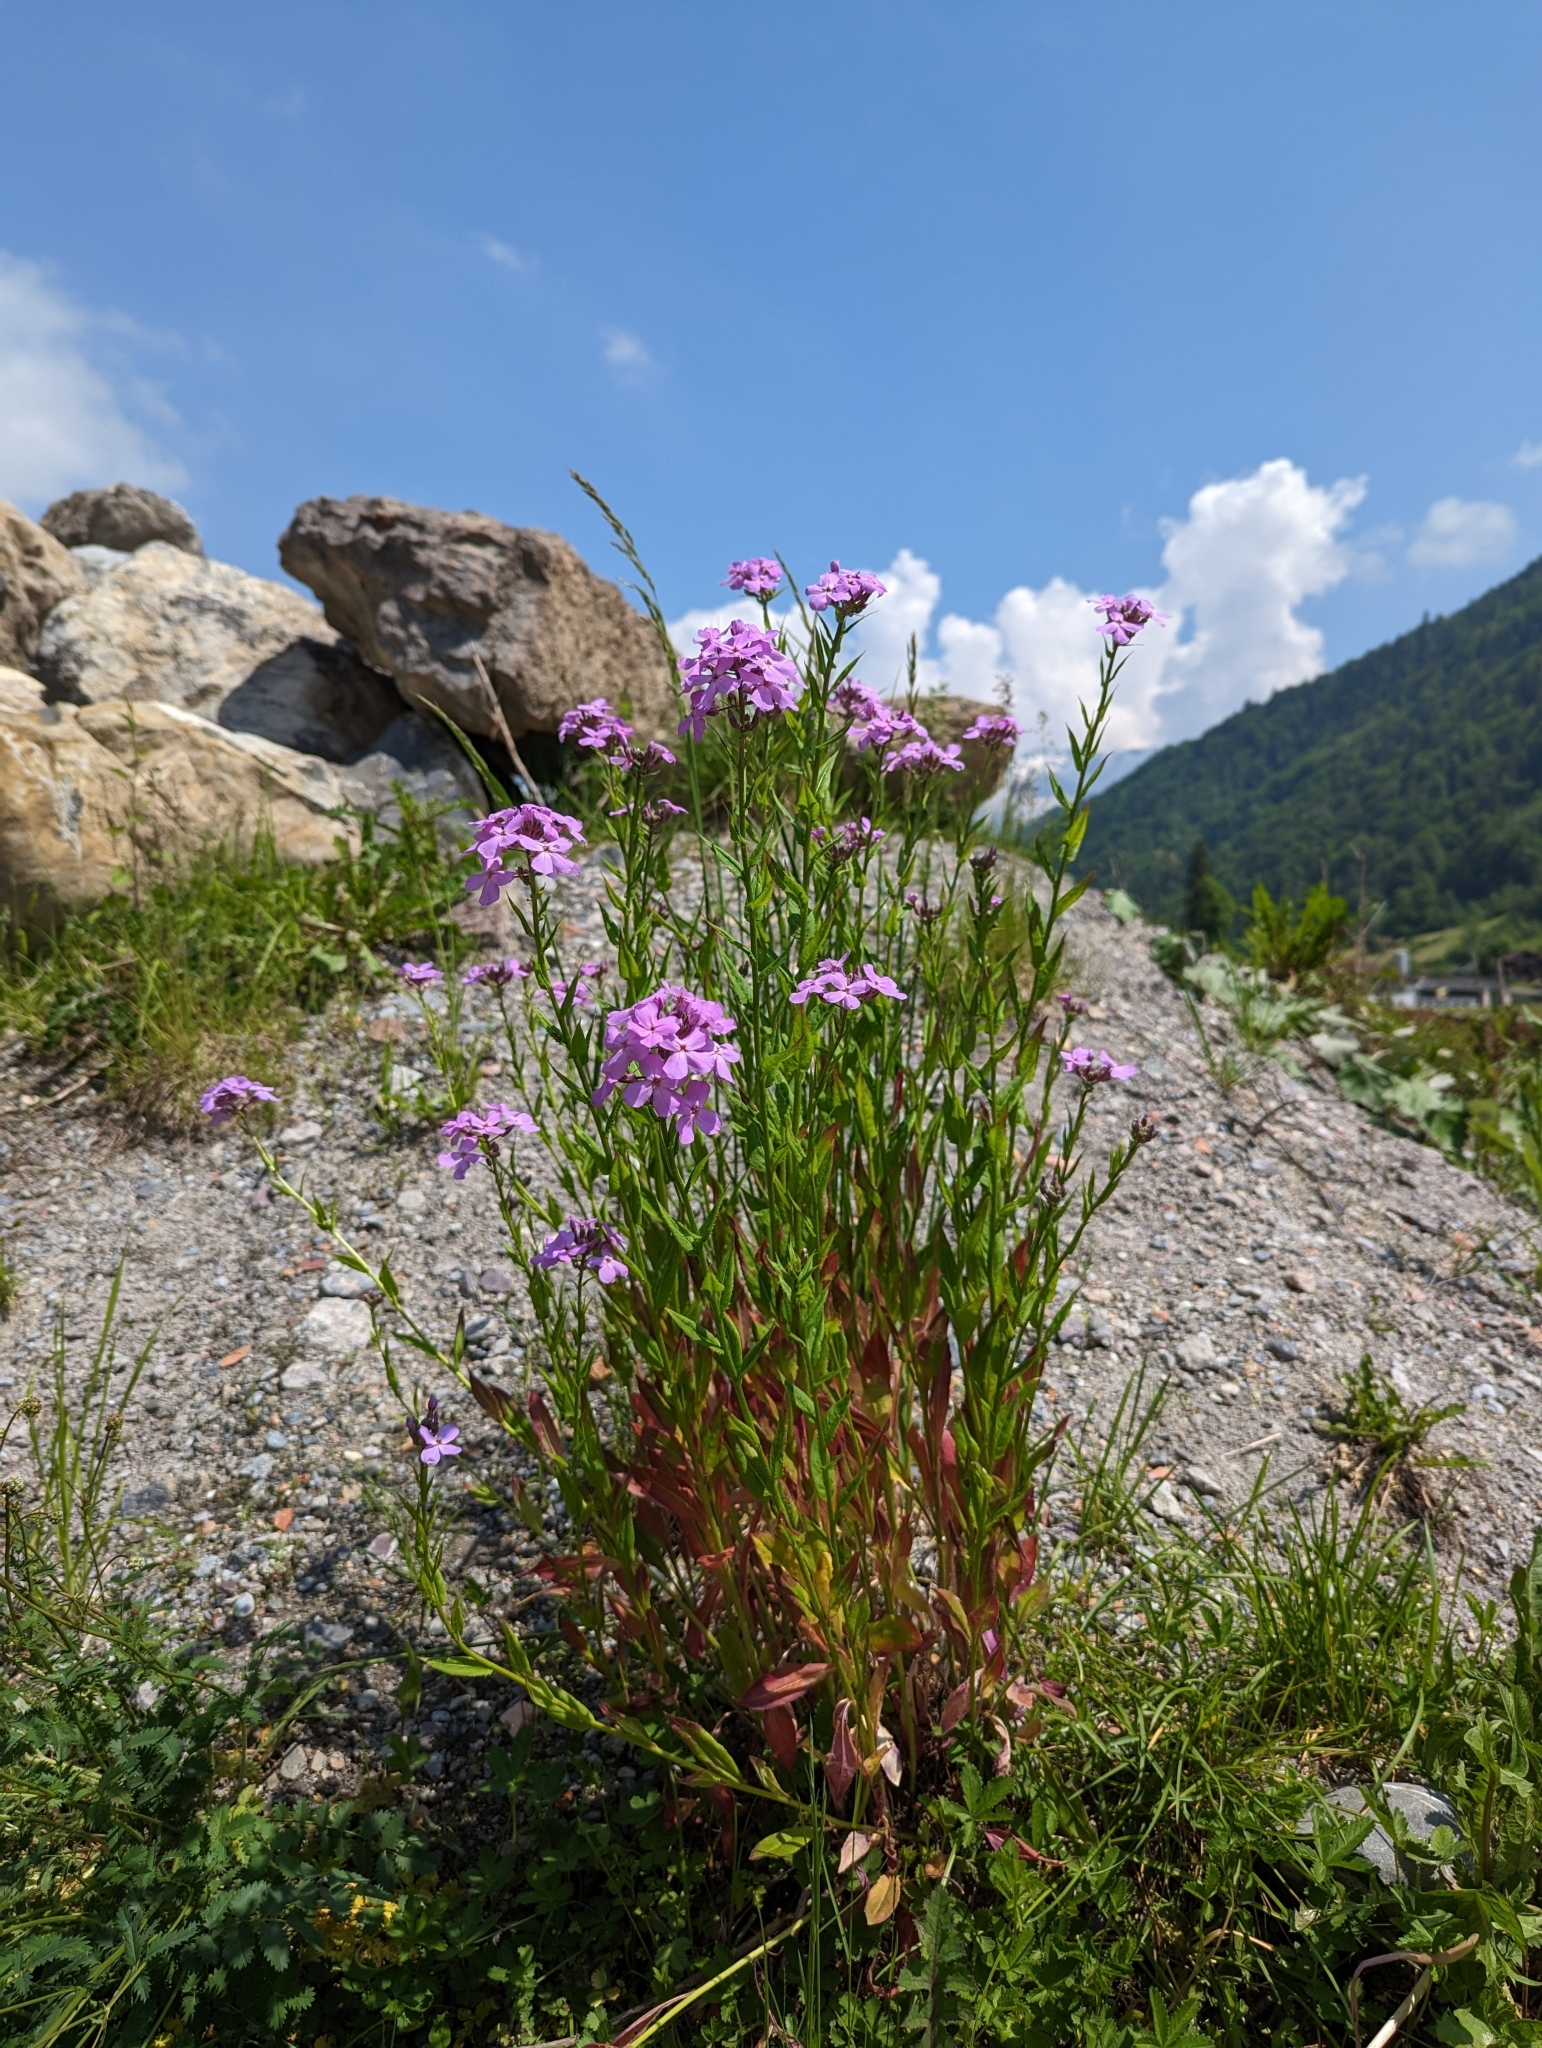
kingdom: Plantae
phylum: Tracheophyta
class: Magnoliopsida
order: Brassicales
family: Brassicaceae
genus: Hesperis
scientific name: Hesperis matronalis
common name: Dame's-violet
